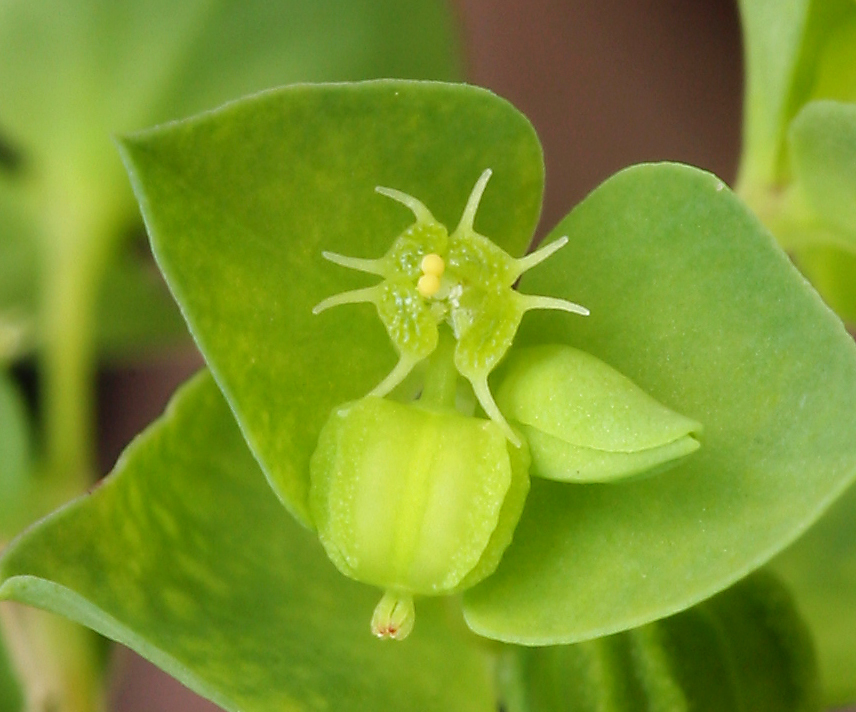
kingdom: Plantae
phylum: Tracheophyta
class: Magnoliopsida
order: Malpighiales
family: Euphorbiaceae
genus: Euphorbia
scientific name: Euphorbia peplus
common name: Petty spurge
